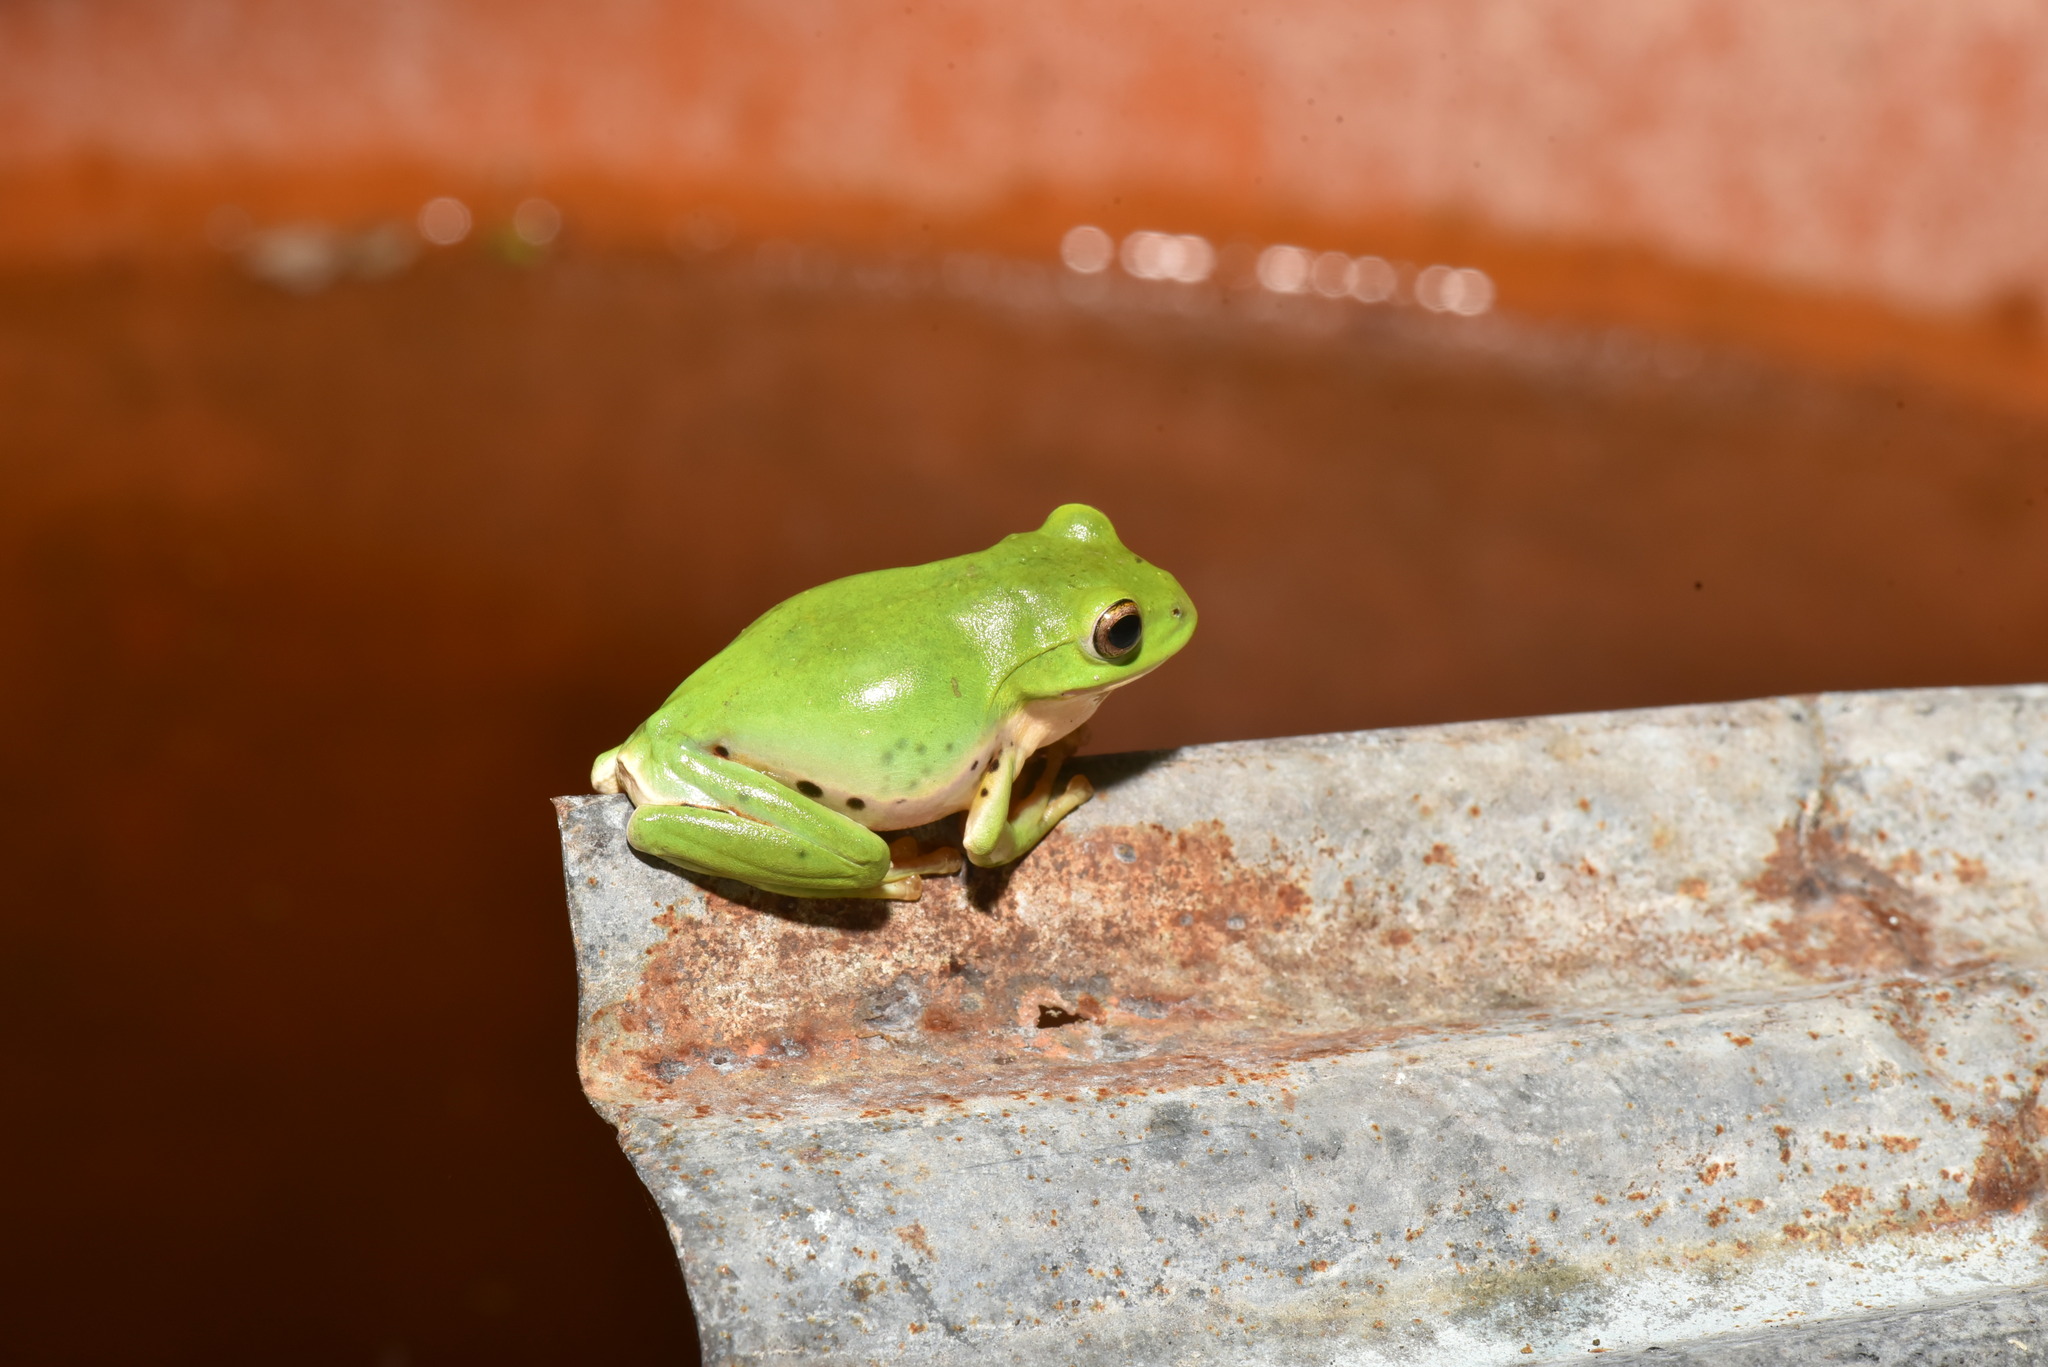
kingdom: Animalia
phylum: Chordata
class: Amphibia
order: Anura
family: Rhacophoridae
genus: Zhangixalus
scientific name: Zhangixalus moltrechti
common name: Moltrecht's treefrog
